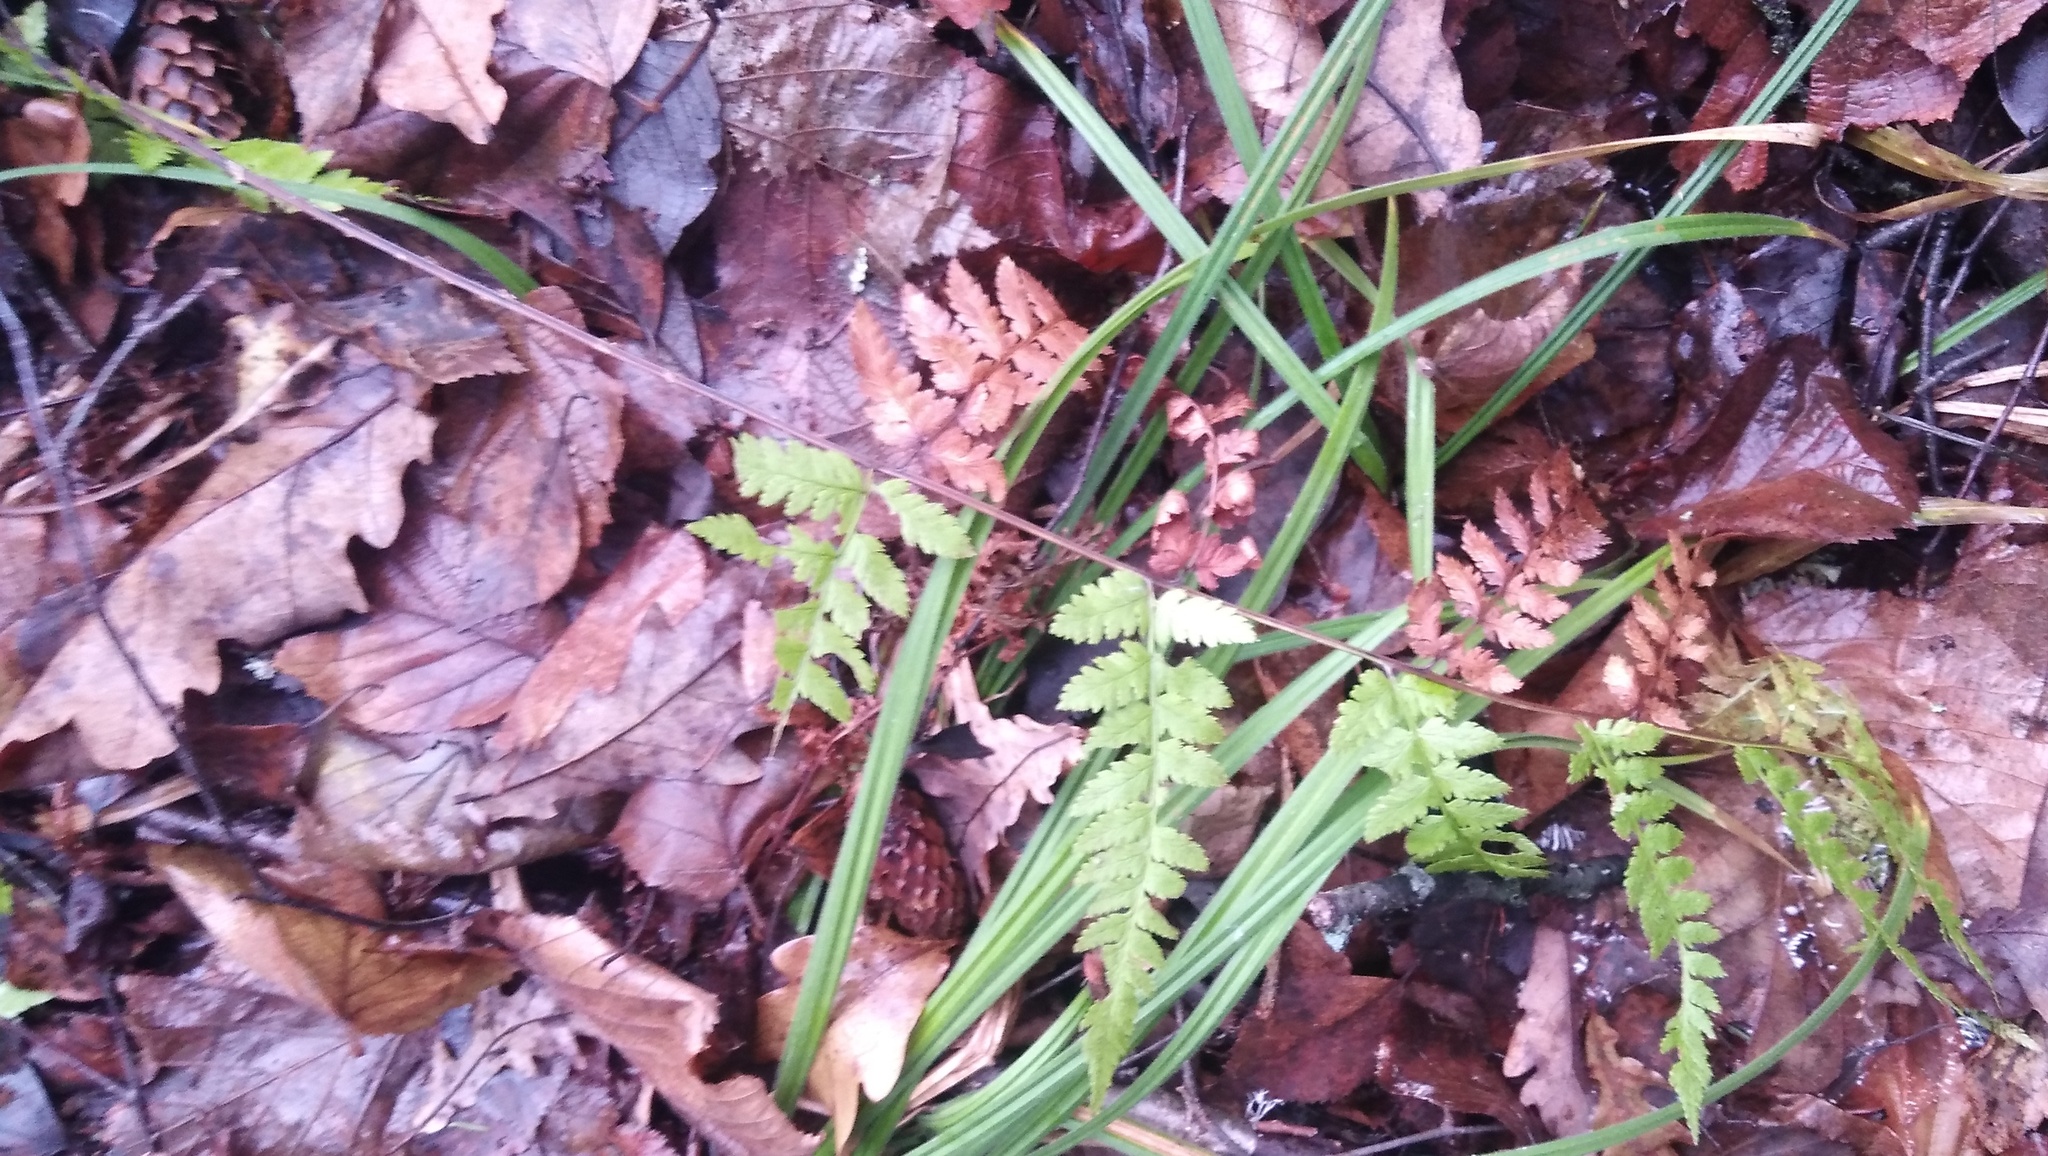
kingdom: Plantae
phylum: Tracheophyta
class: Polypodiopsida
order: Polypodiales
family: Dryopteridaceae
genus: Dryopteris
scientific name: Dryopteris carthusiana
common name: Narrow buckler-fern
